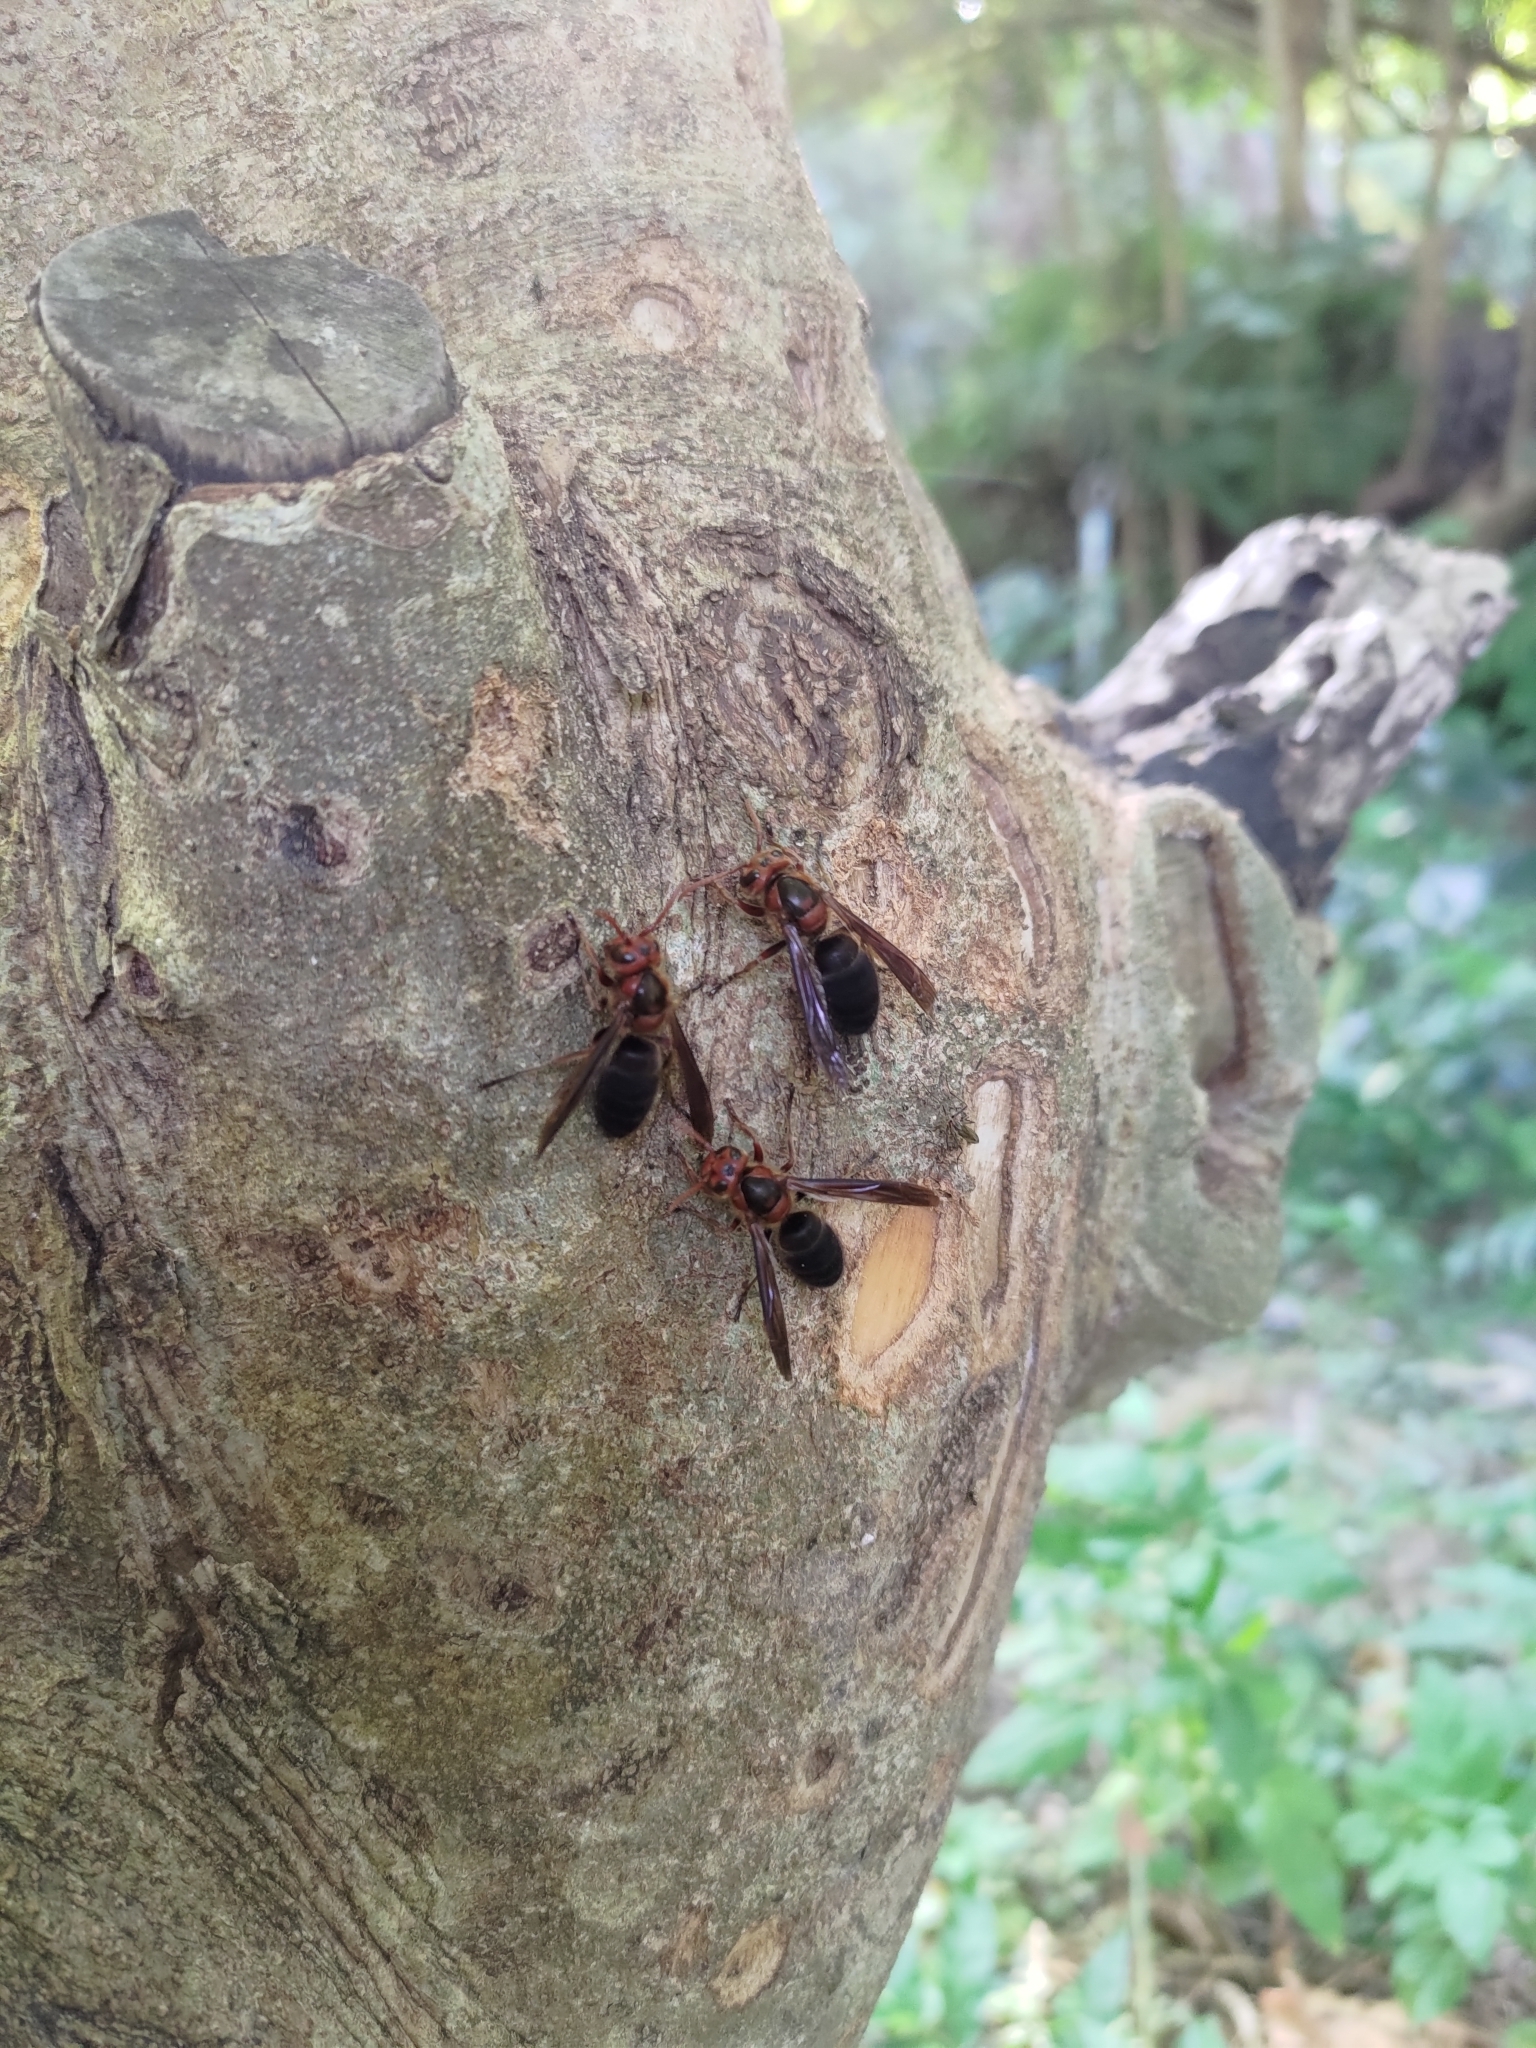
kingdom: Animalia
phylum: Arthropoda
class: Insecta
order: Hymenoptera
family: Vespidae
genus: Vespa
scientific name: Vespa basalis
